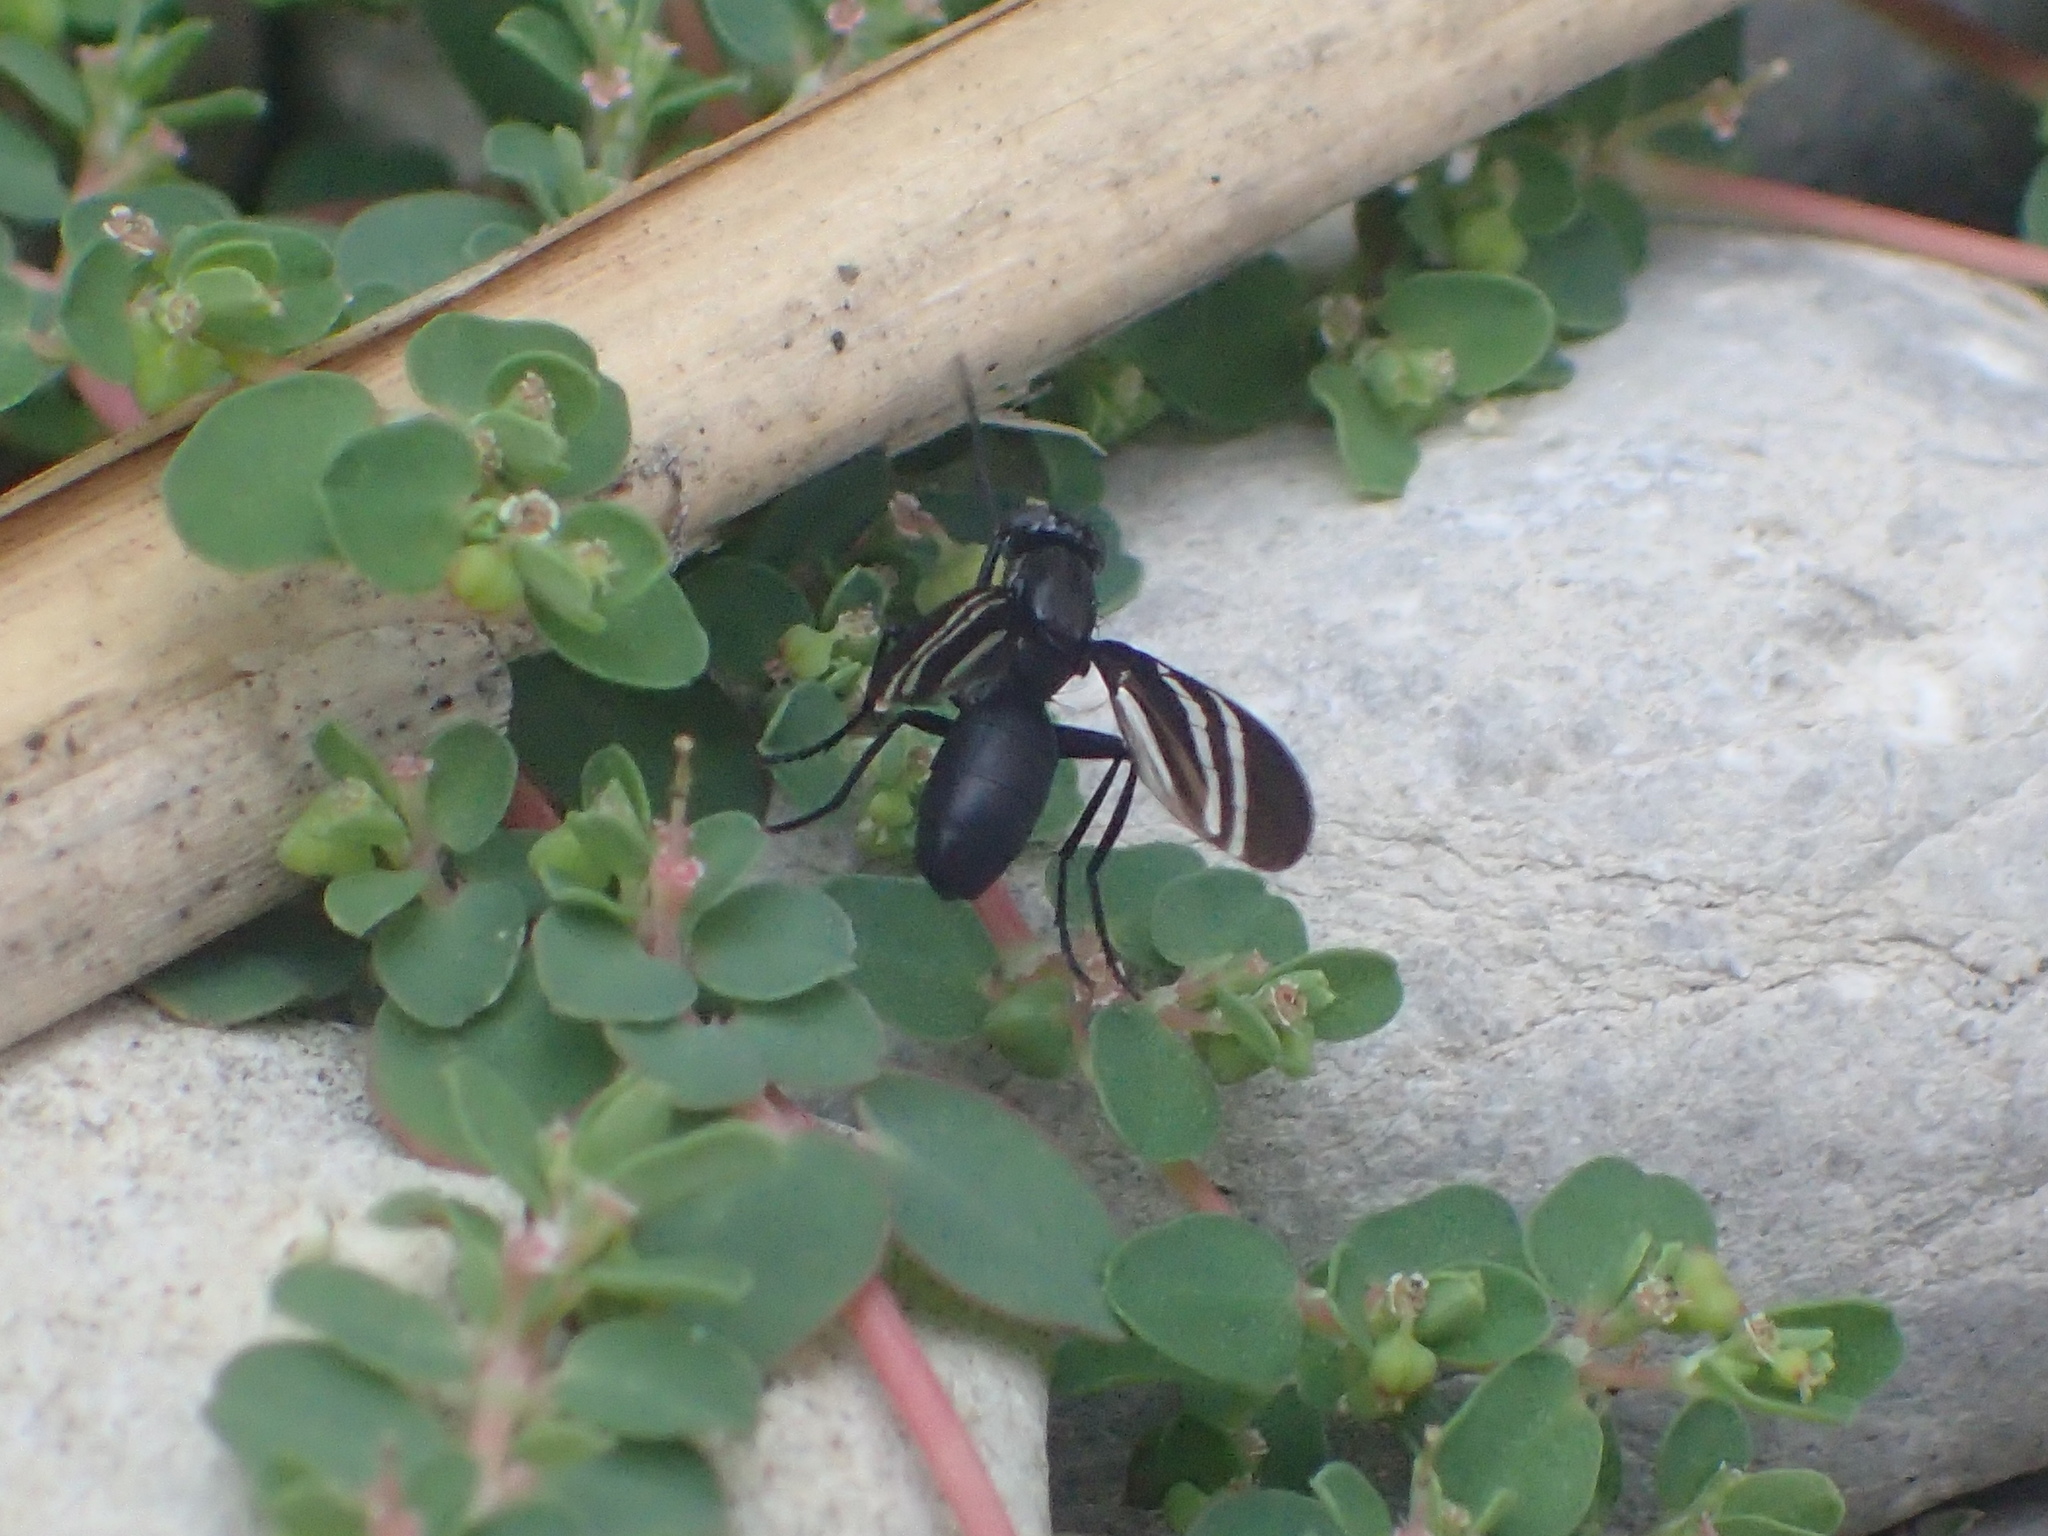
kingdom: Animalia
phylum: Arthropoda
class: Insecta
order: Diptera
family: Ulidiidae
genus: Tritoxa
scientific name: Tritoxa flexa
